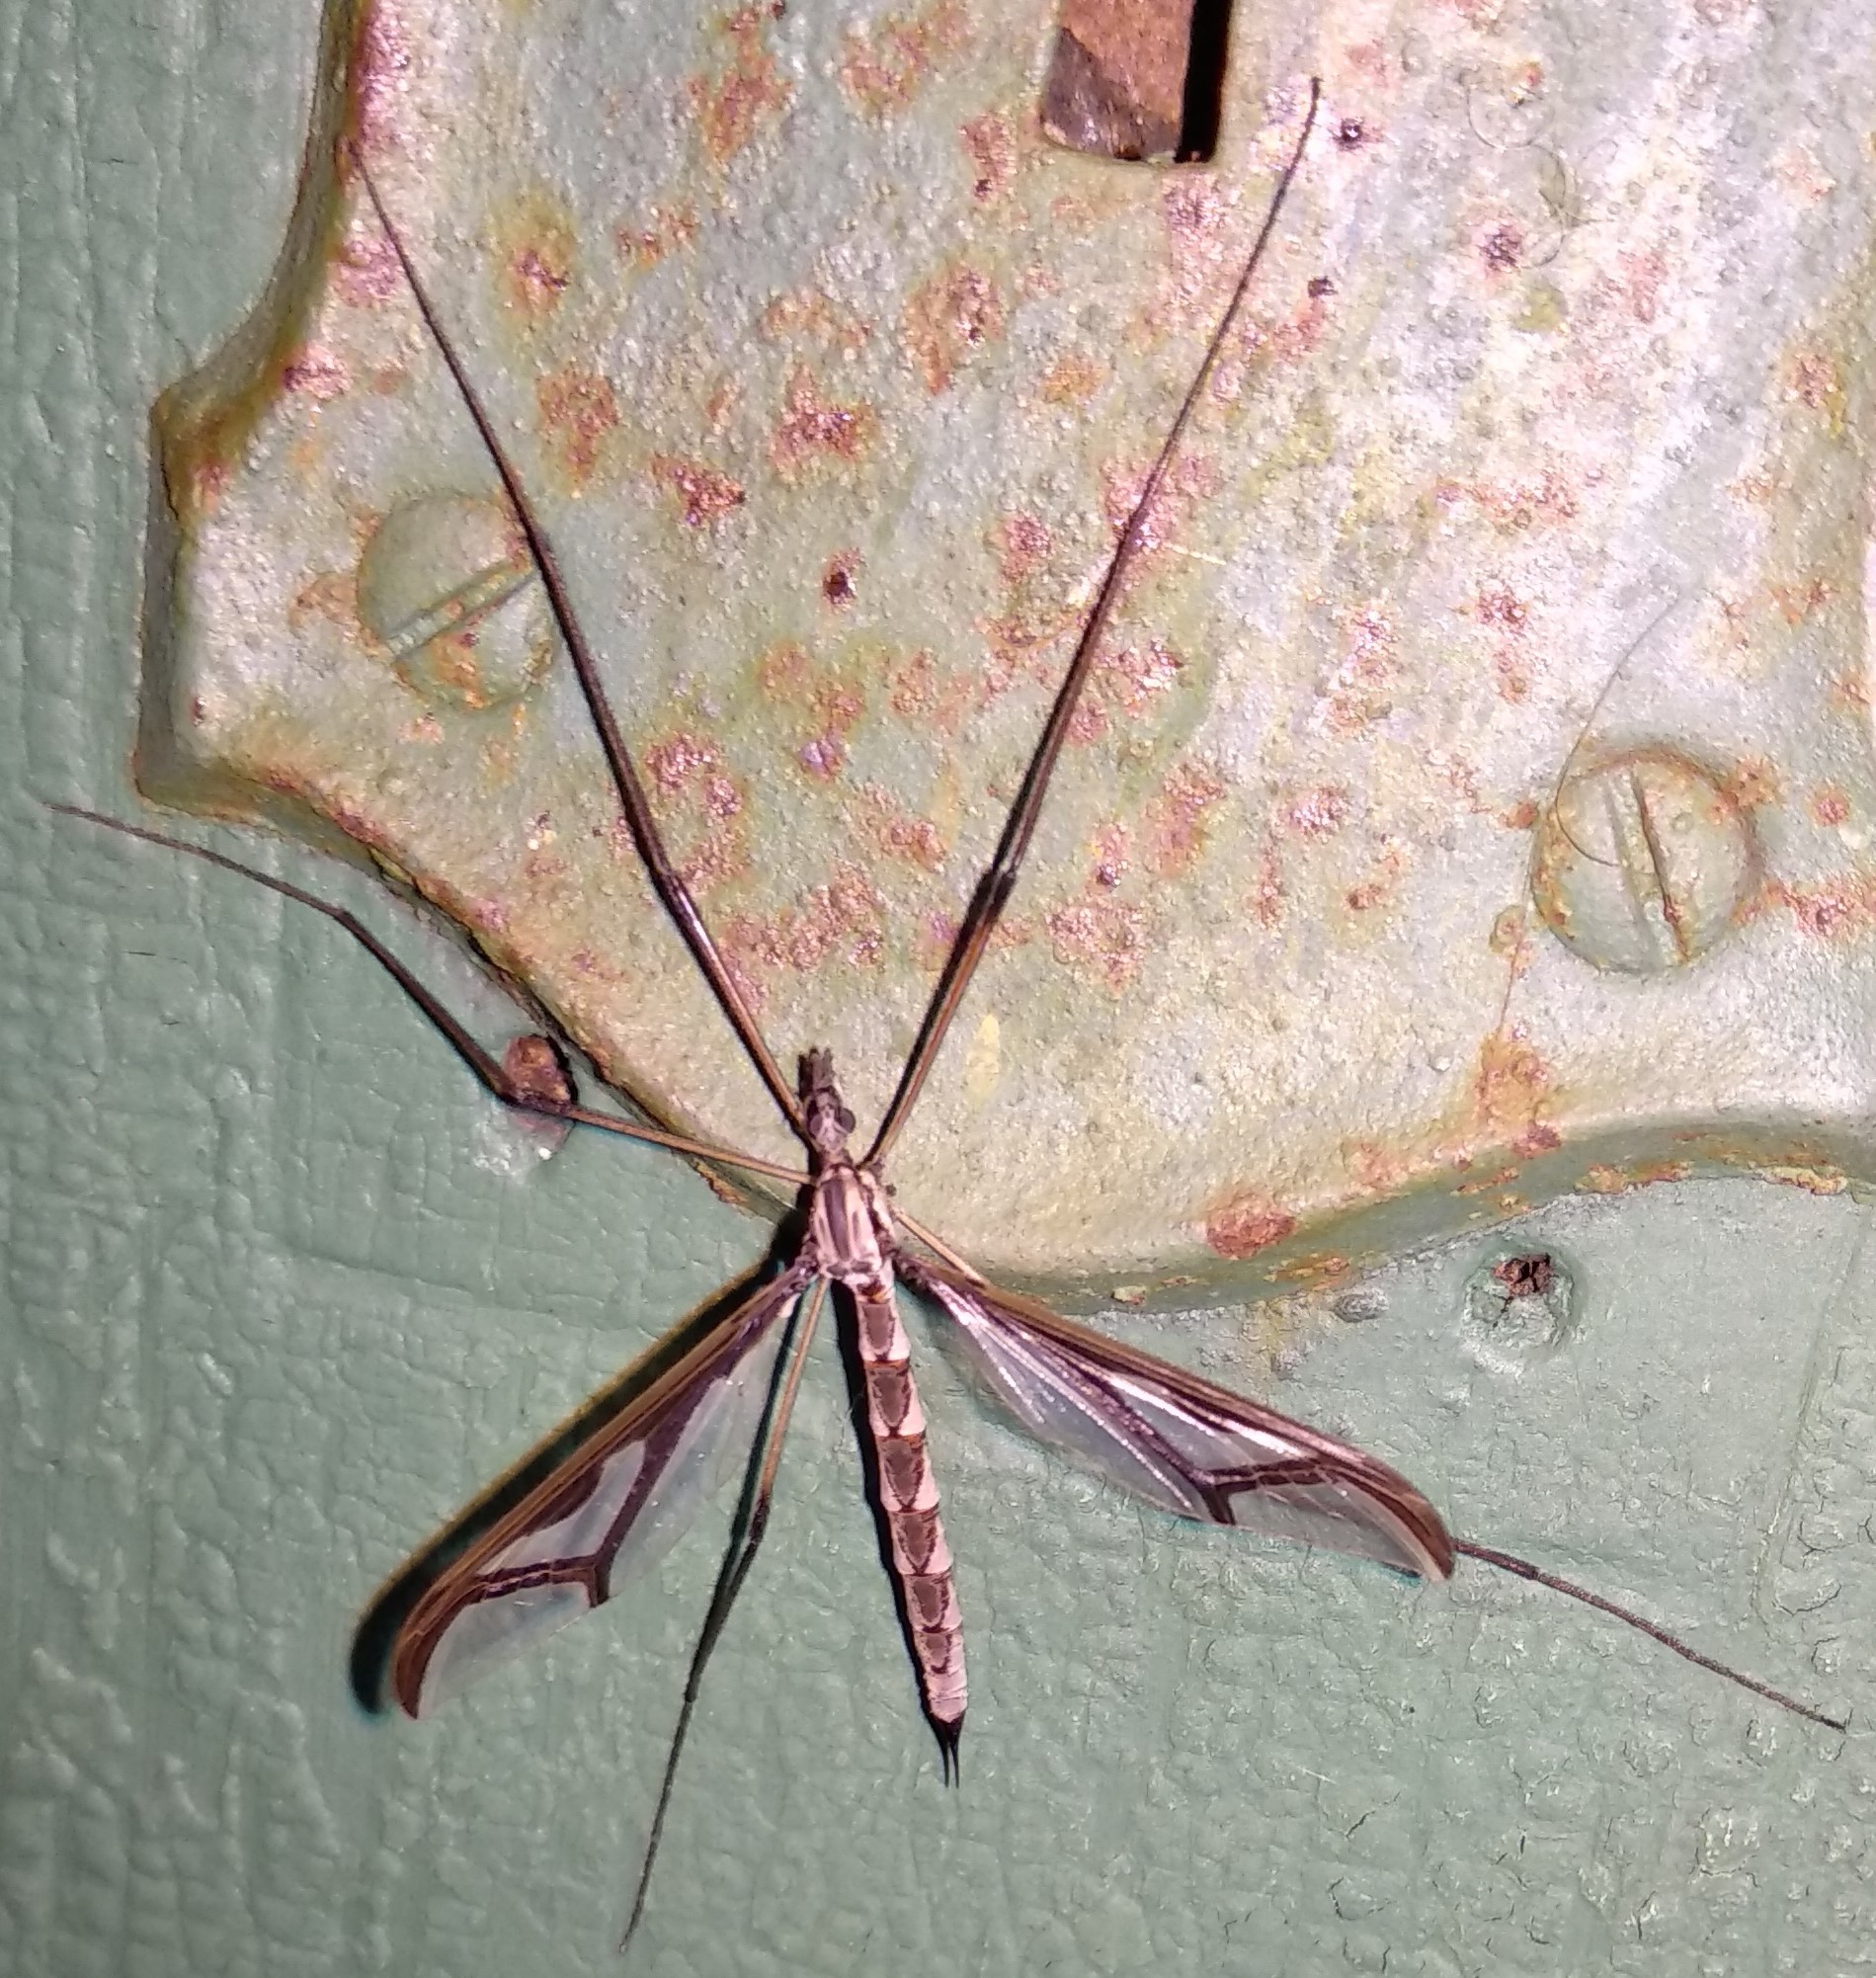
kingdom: Animalia
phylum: Arthropoda
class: Insecta
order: Diptera
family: Pediciidae
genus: Pedicia
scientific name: Pedicia albivitta
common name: Giant eastern crane fly
